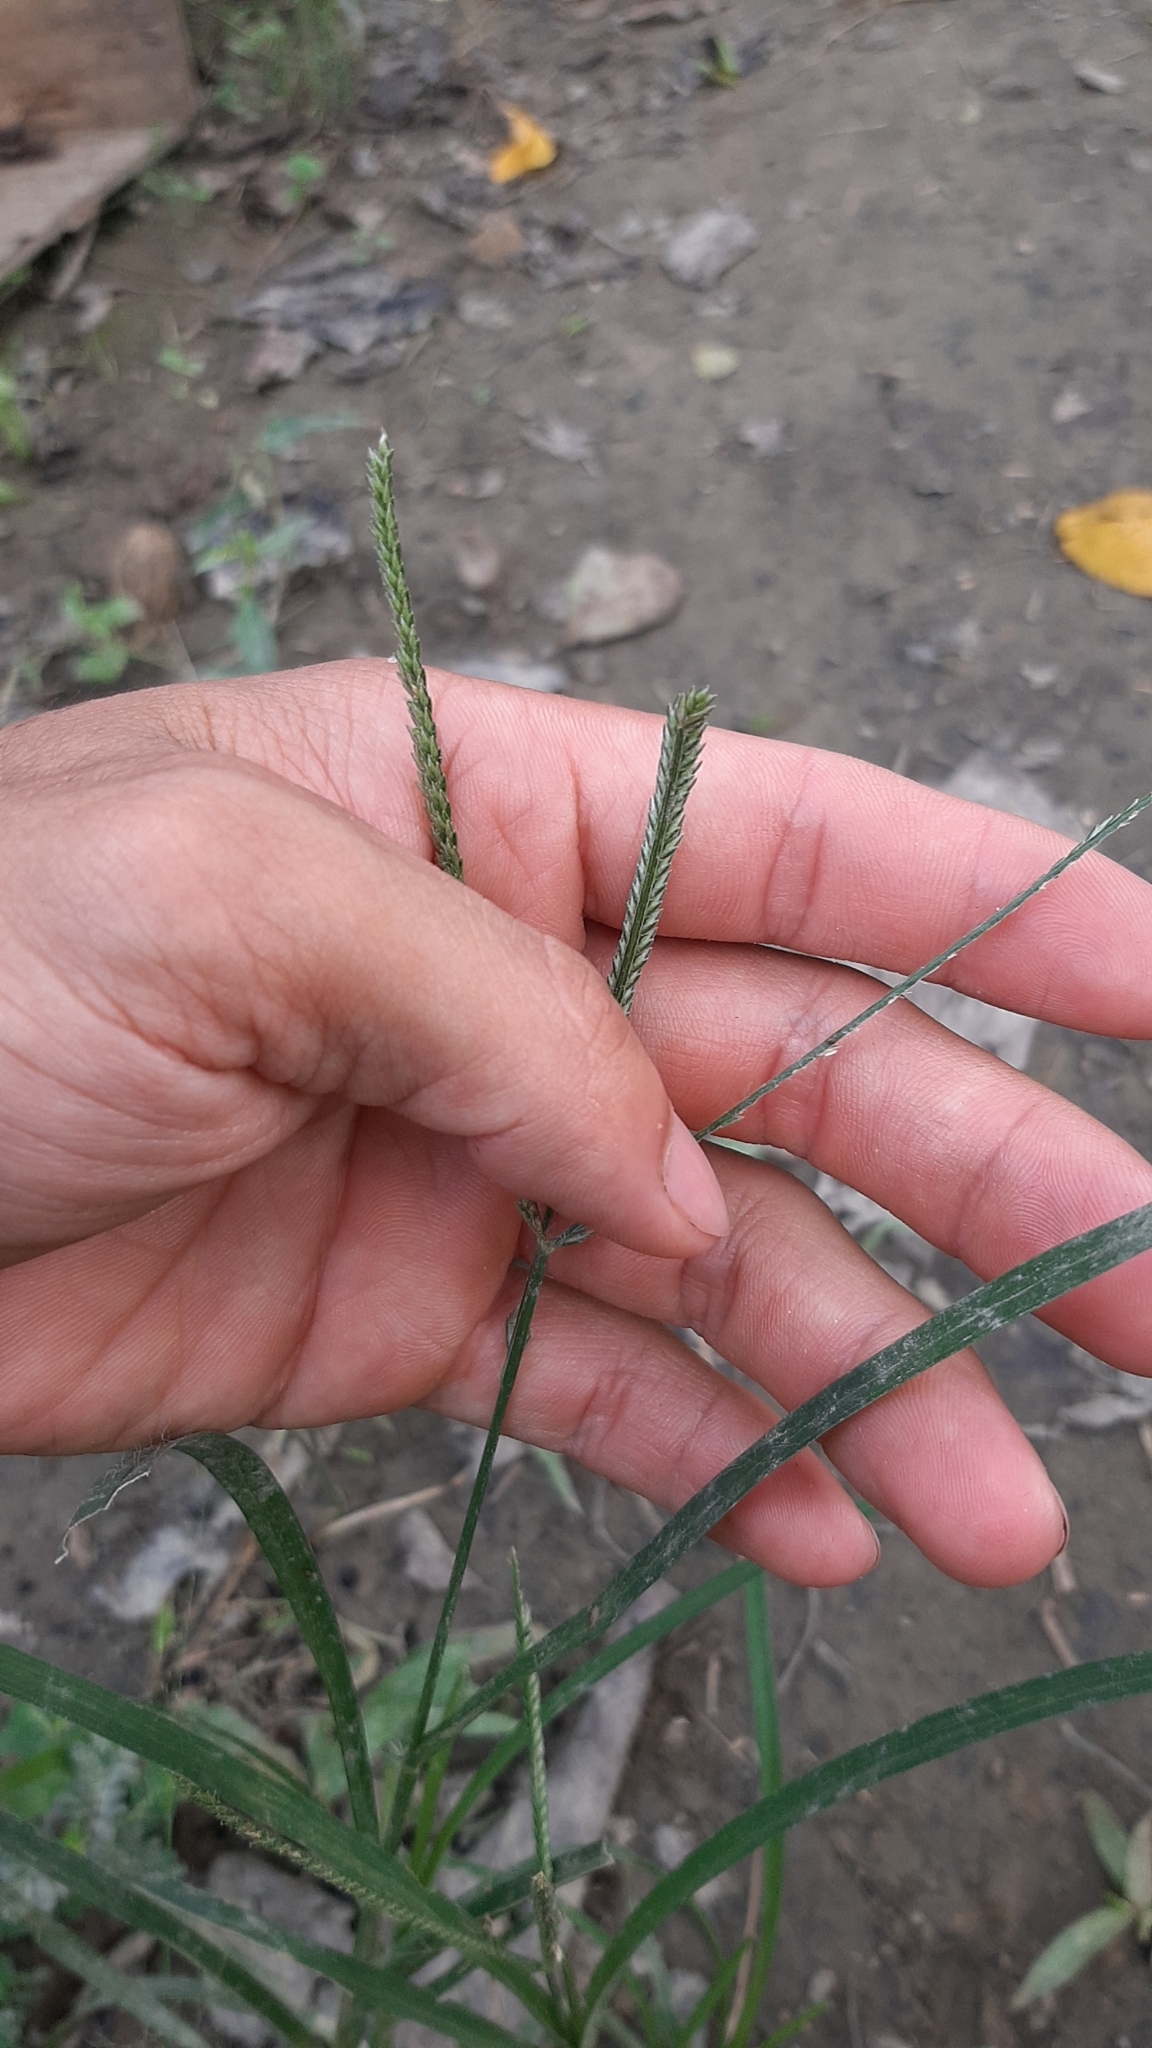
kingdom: Plantae
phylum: Tracheophyta
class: Liliopsida
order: Poales
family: Poaceae
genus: Eleusine
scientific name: Eleusine indica
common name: Yard-grass
